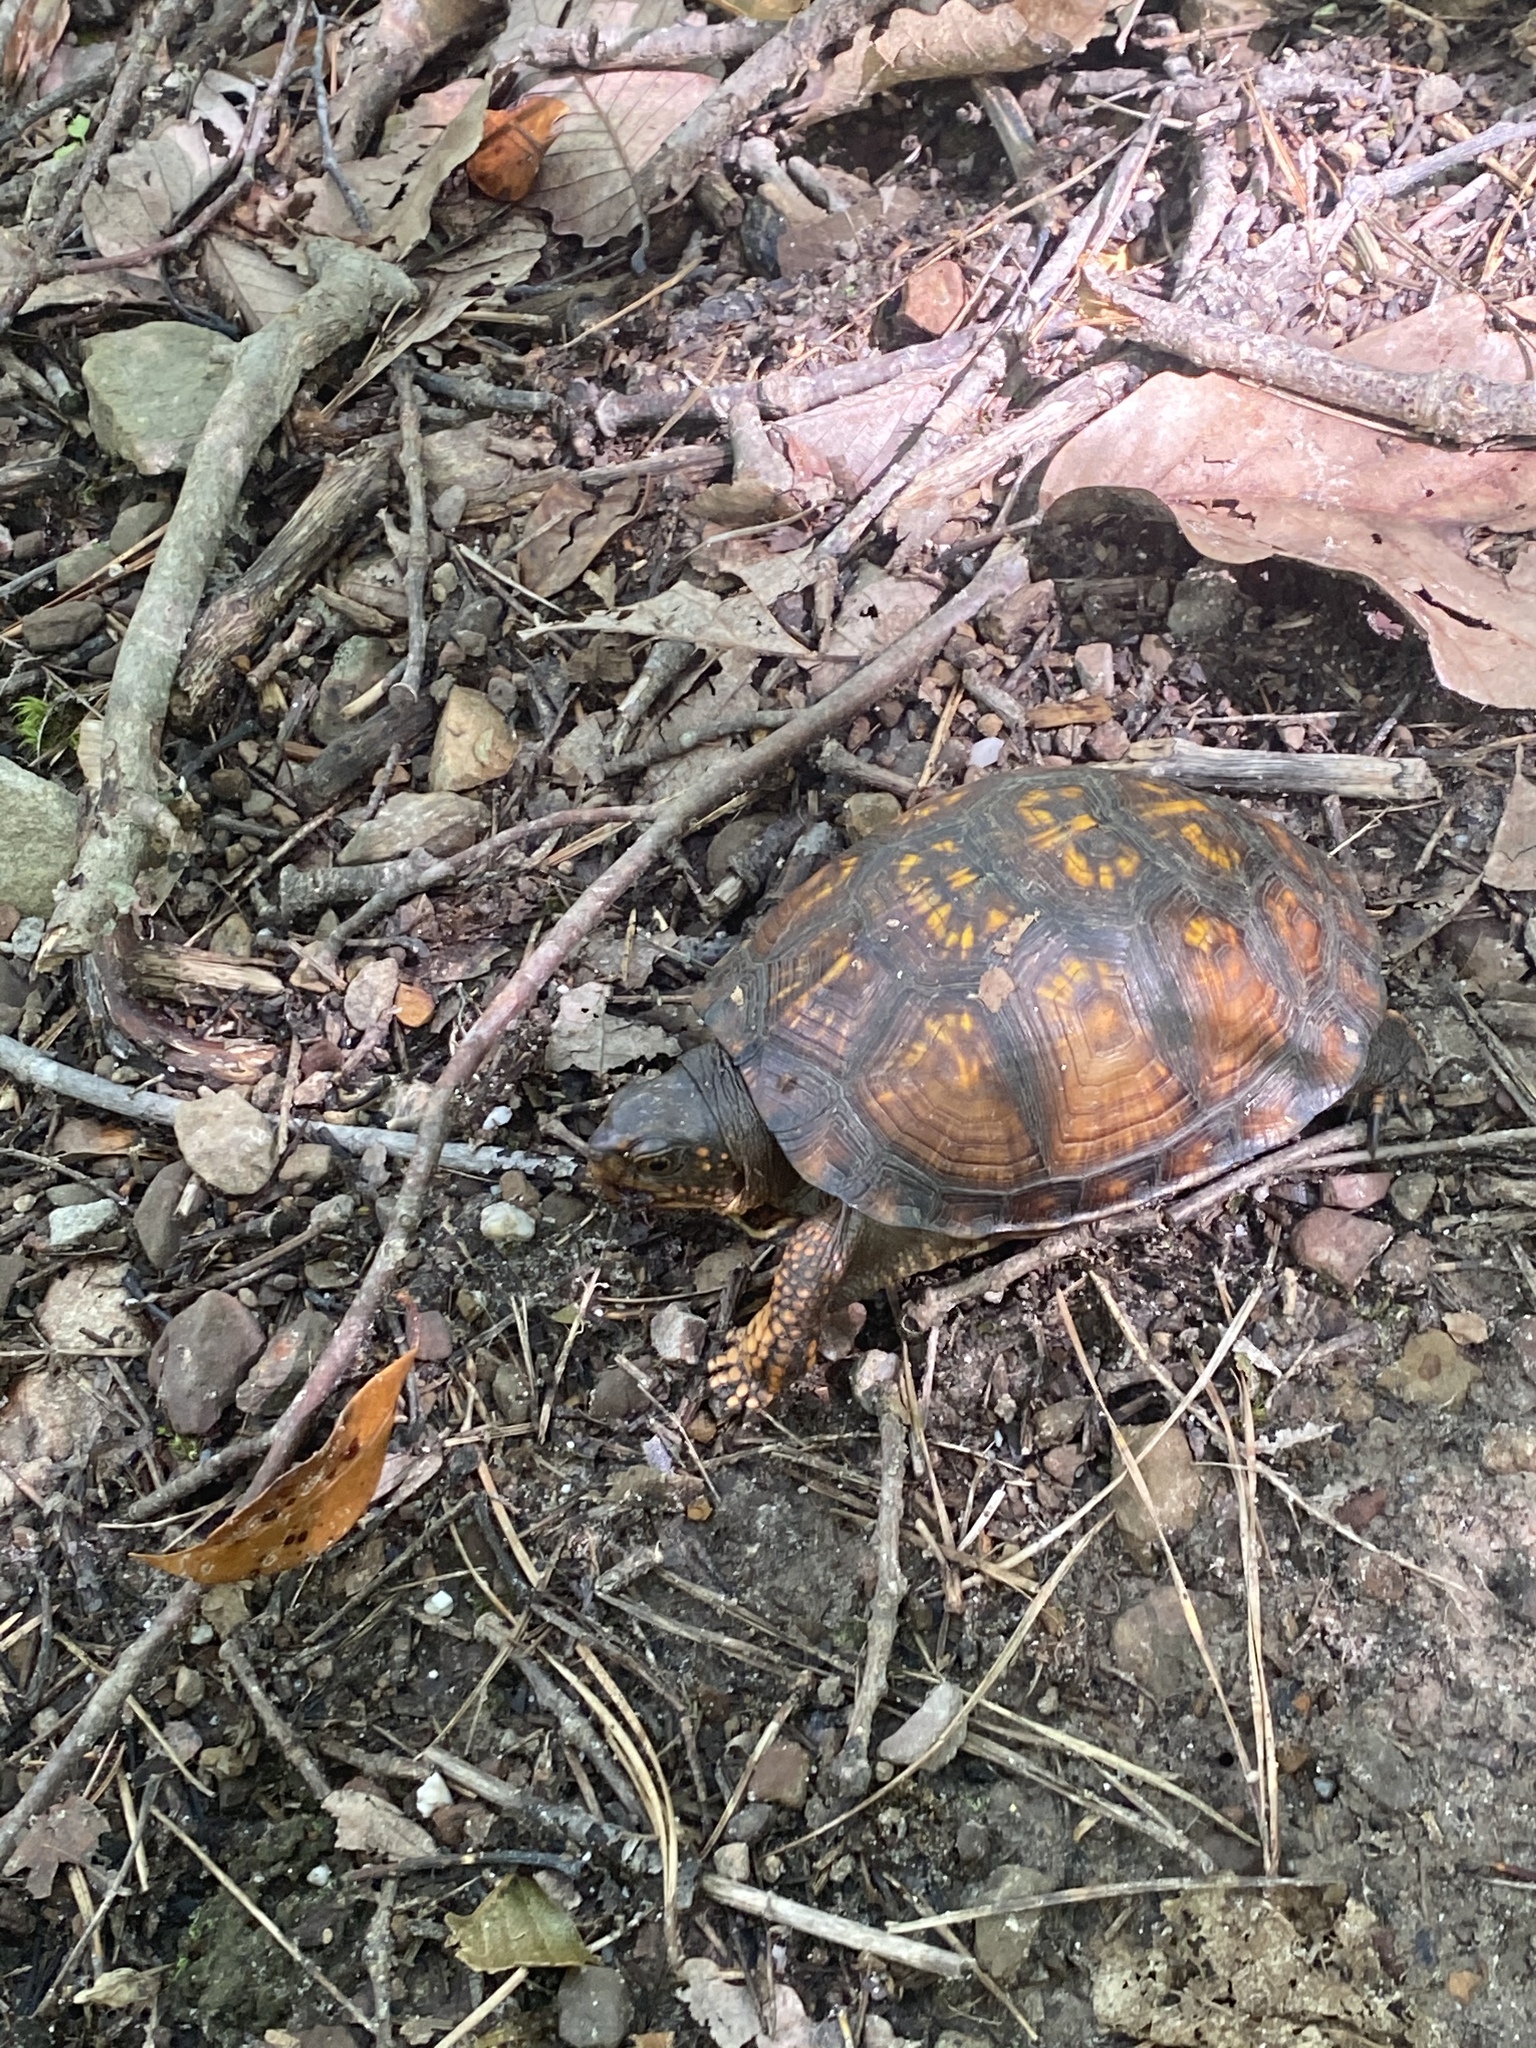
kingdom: Animalia
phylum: Chordata
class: Testudines
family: Emydidae
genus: Terrapene
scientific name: Terrapene carolina
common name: Common box turtle
